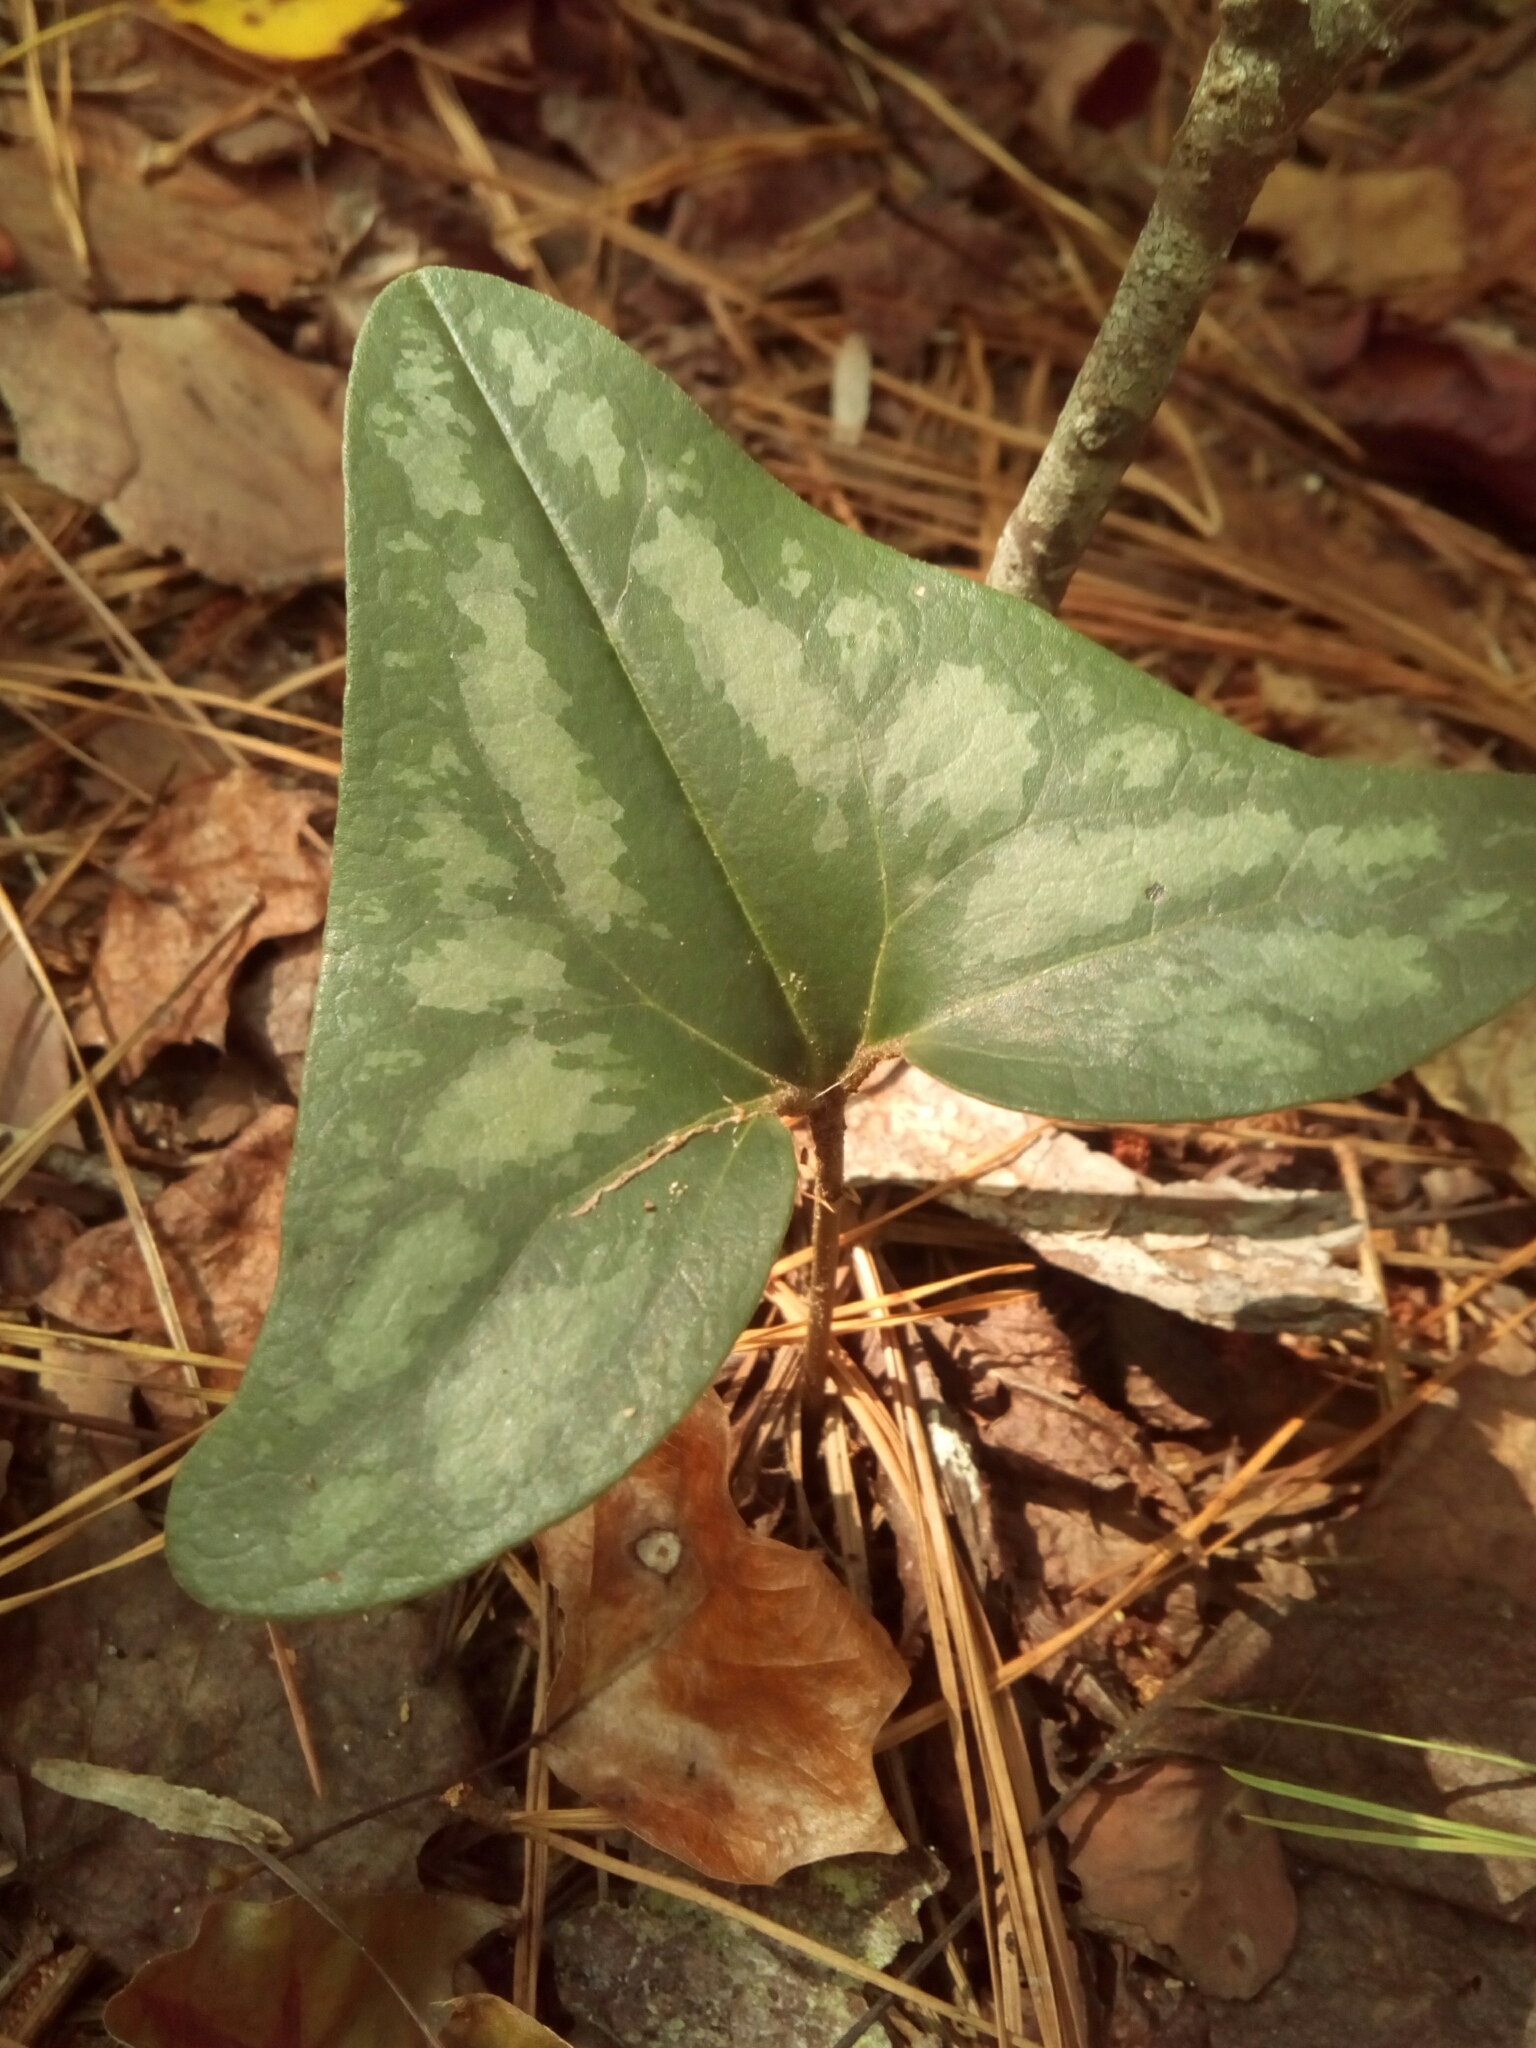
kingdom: Plantae
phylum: Tracheophyta
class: Magnoliopsida
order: Piperales
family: Aristolochiaceae
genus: Hexastylis
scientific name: Hexastylis arifolia
